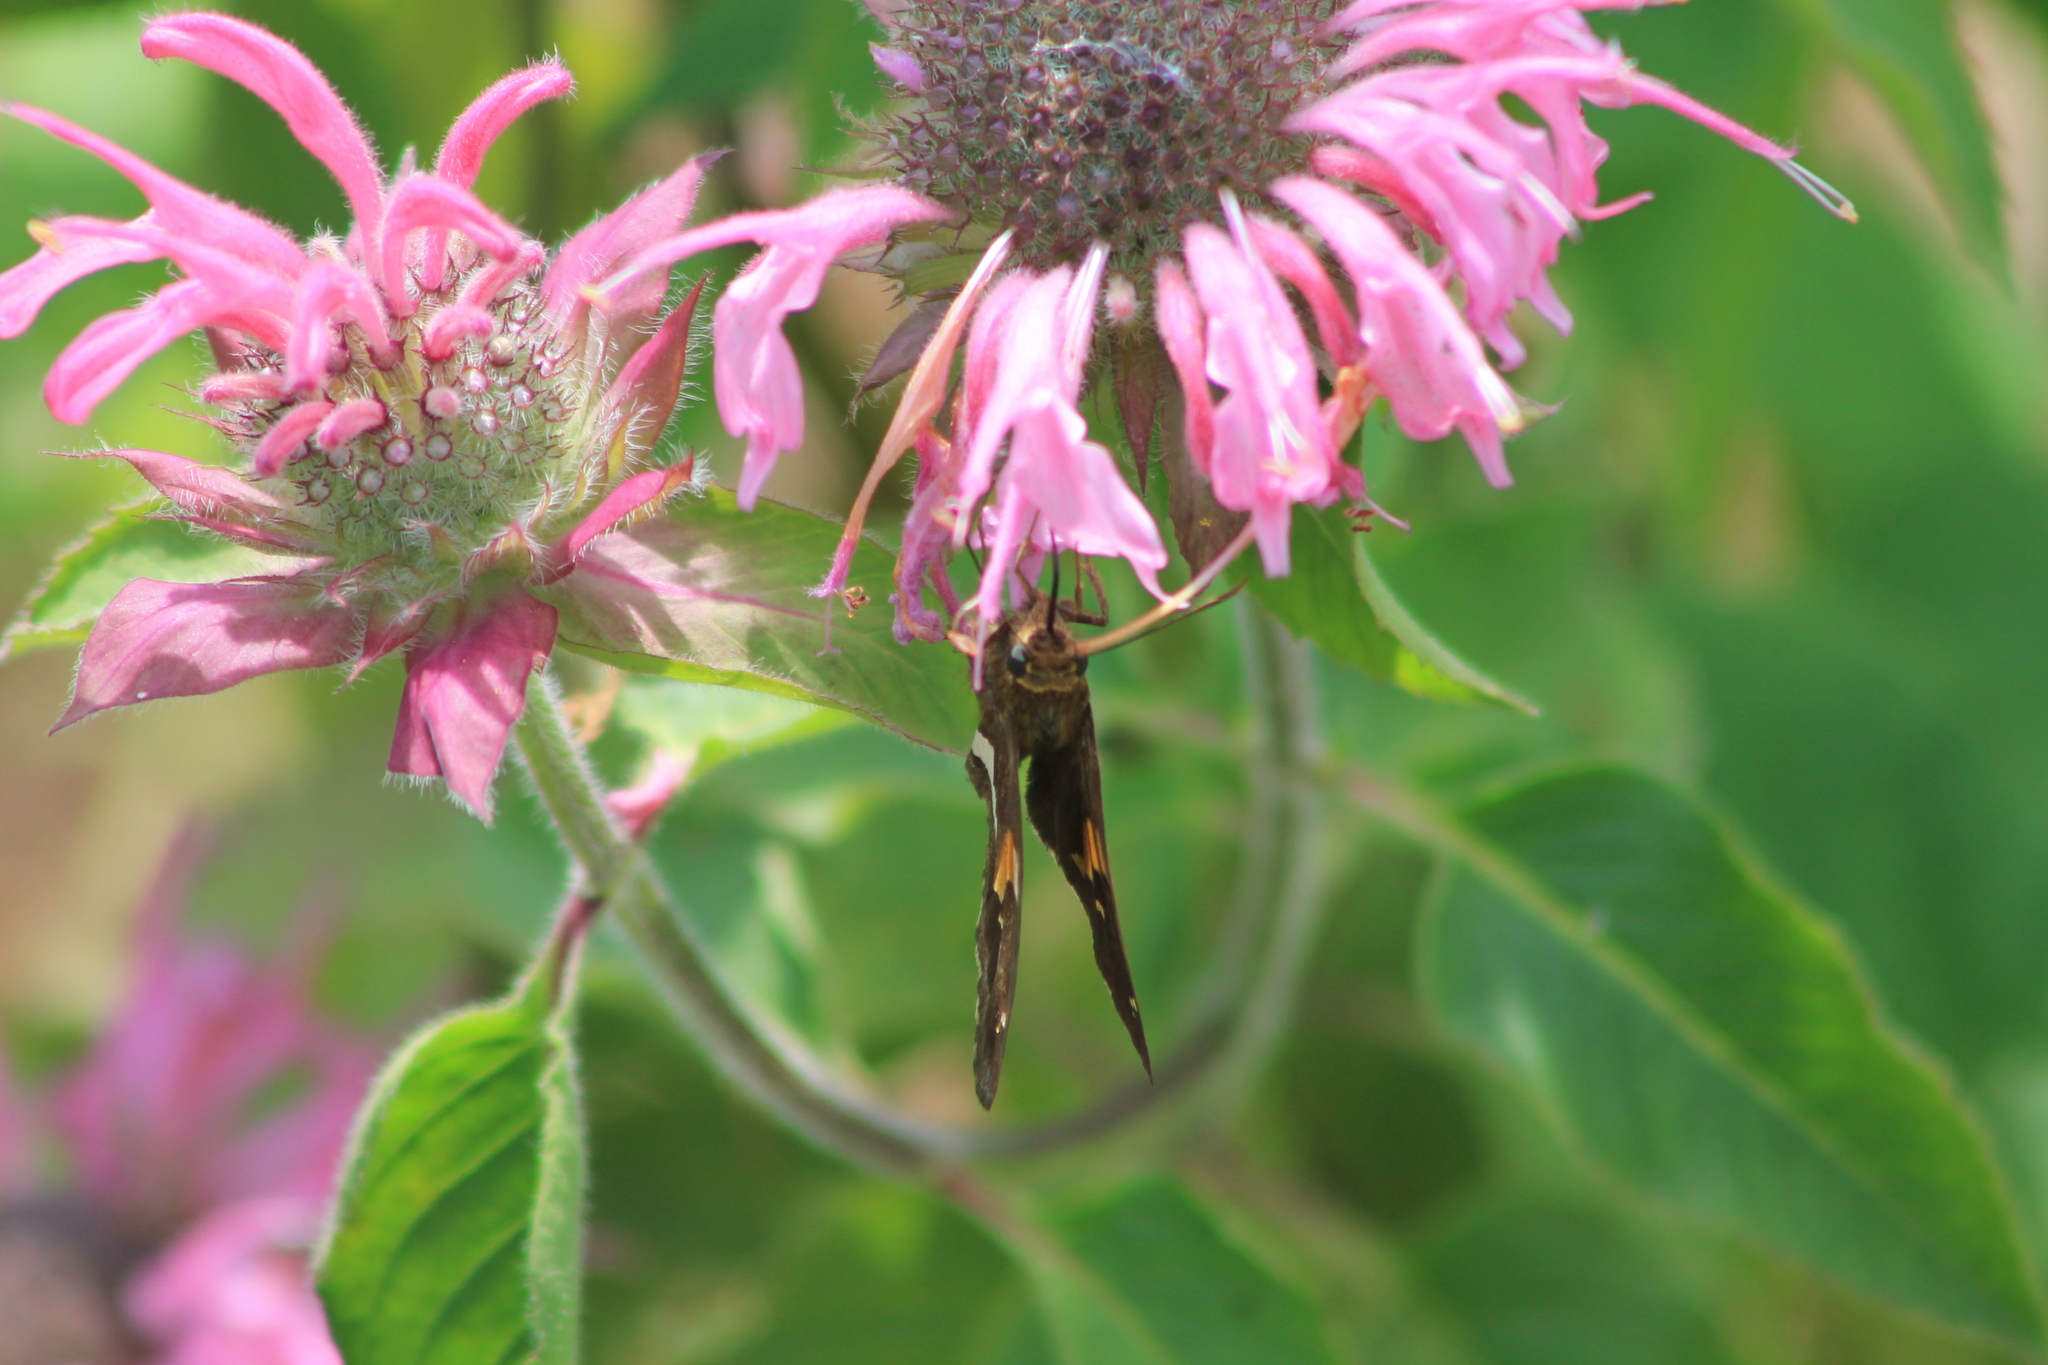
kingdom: Animalia
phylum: Arthropoda
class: Insecta
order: Lepidoptera
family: Hesperiidae
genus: Epargyreus
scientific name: Epargyreus clarus
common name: Silver-spotted skipper
